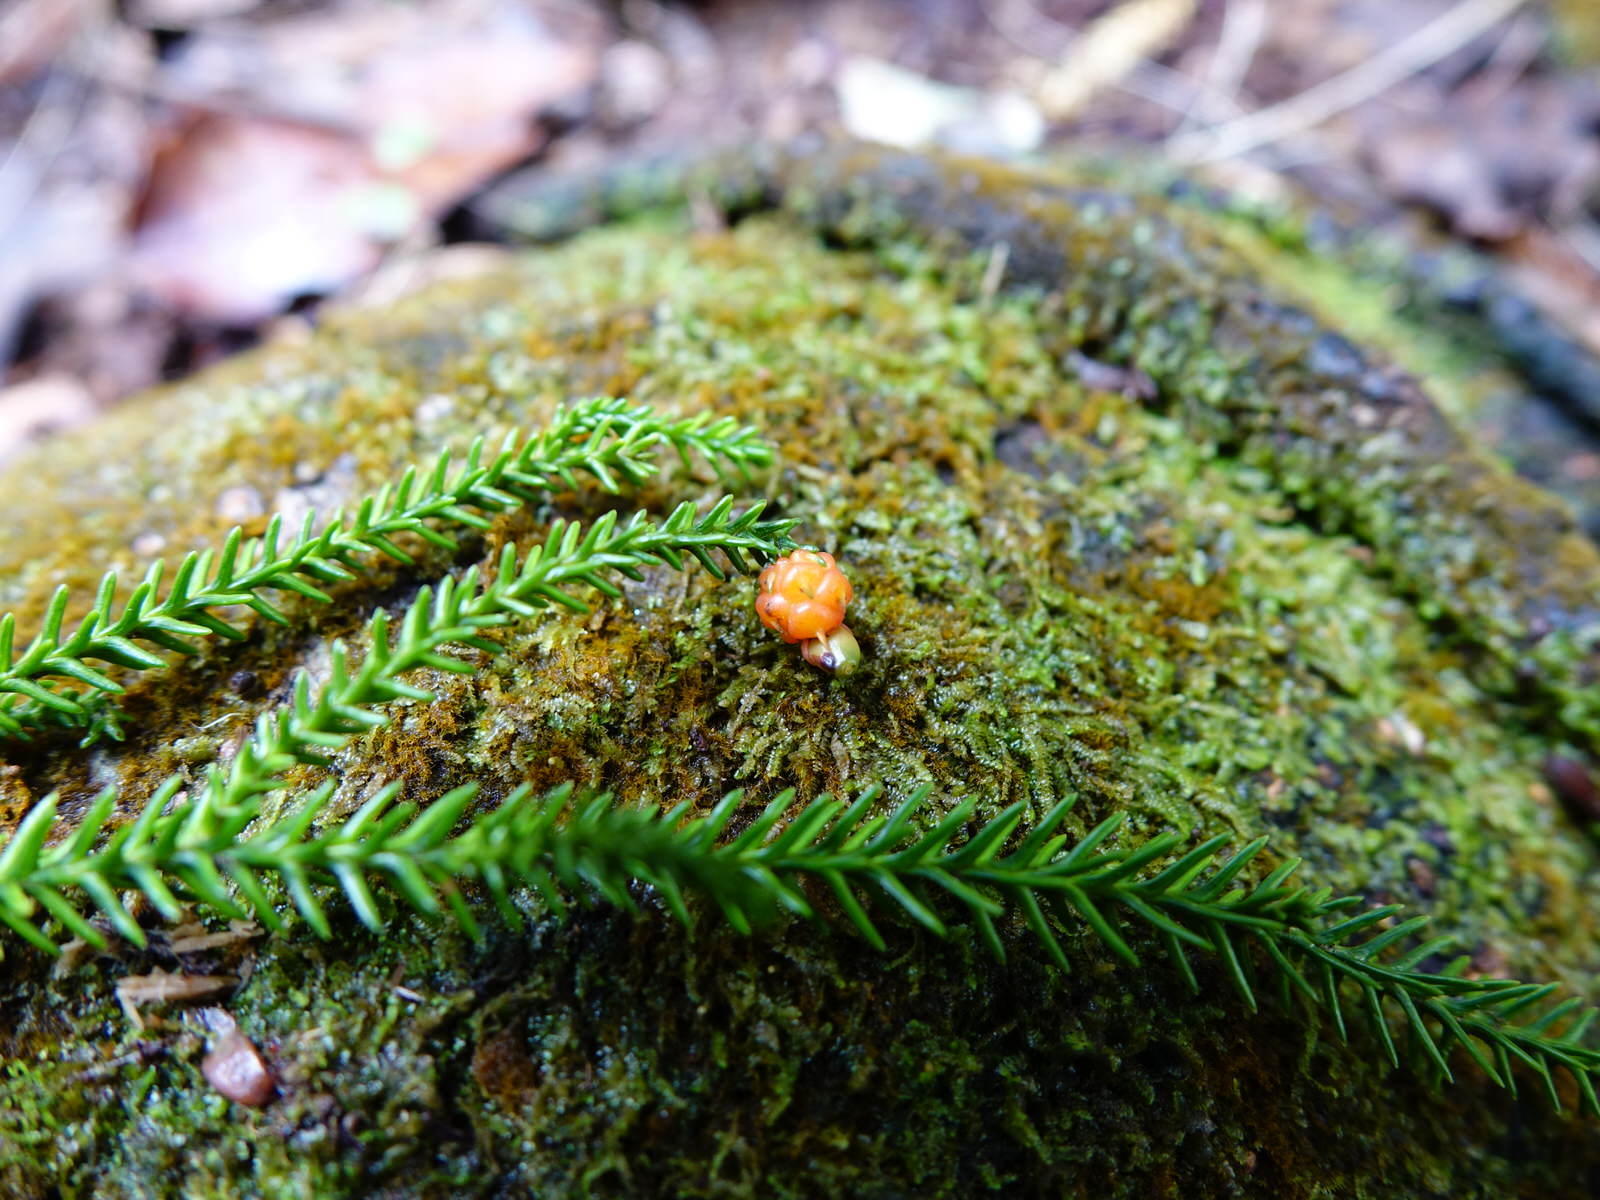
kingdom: Plantae
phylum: Tracheophyta
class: Pinopsida
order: Pinales
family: Podocarpaceae
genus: Dacrydium
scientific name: Dacrydium cupressinum
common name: Red pine
